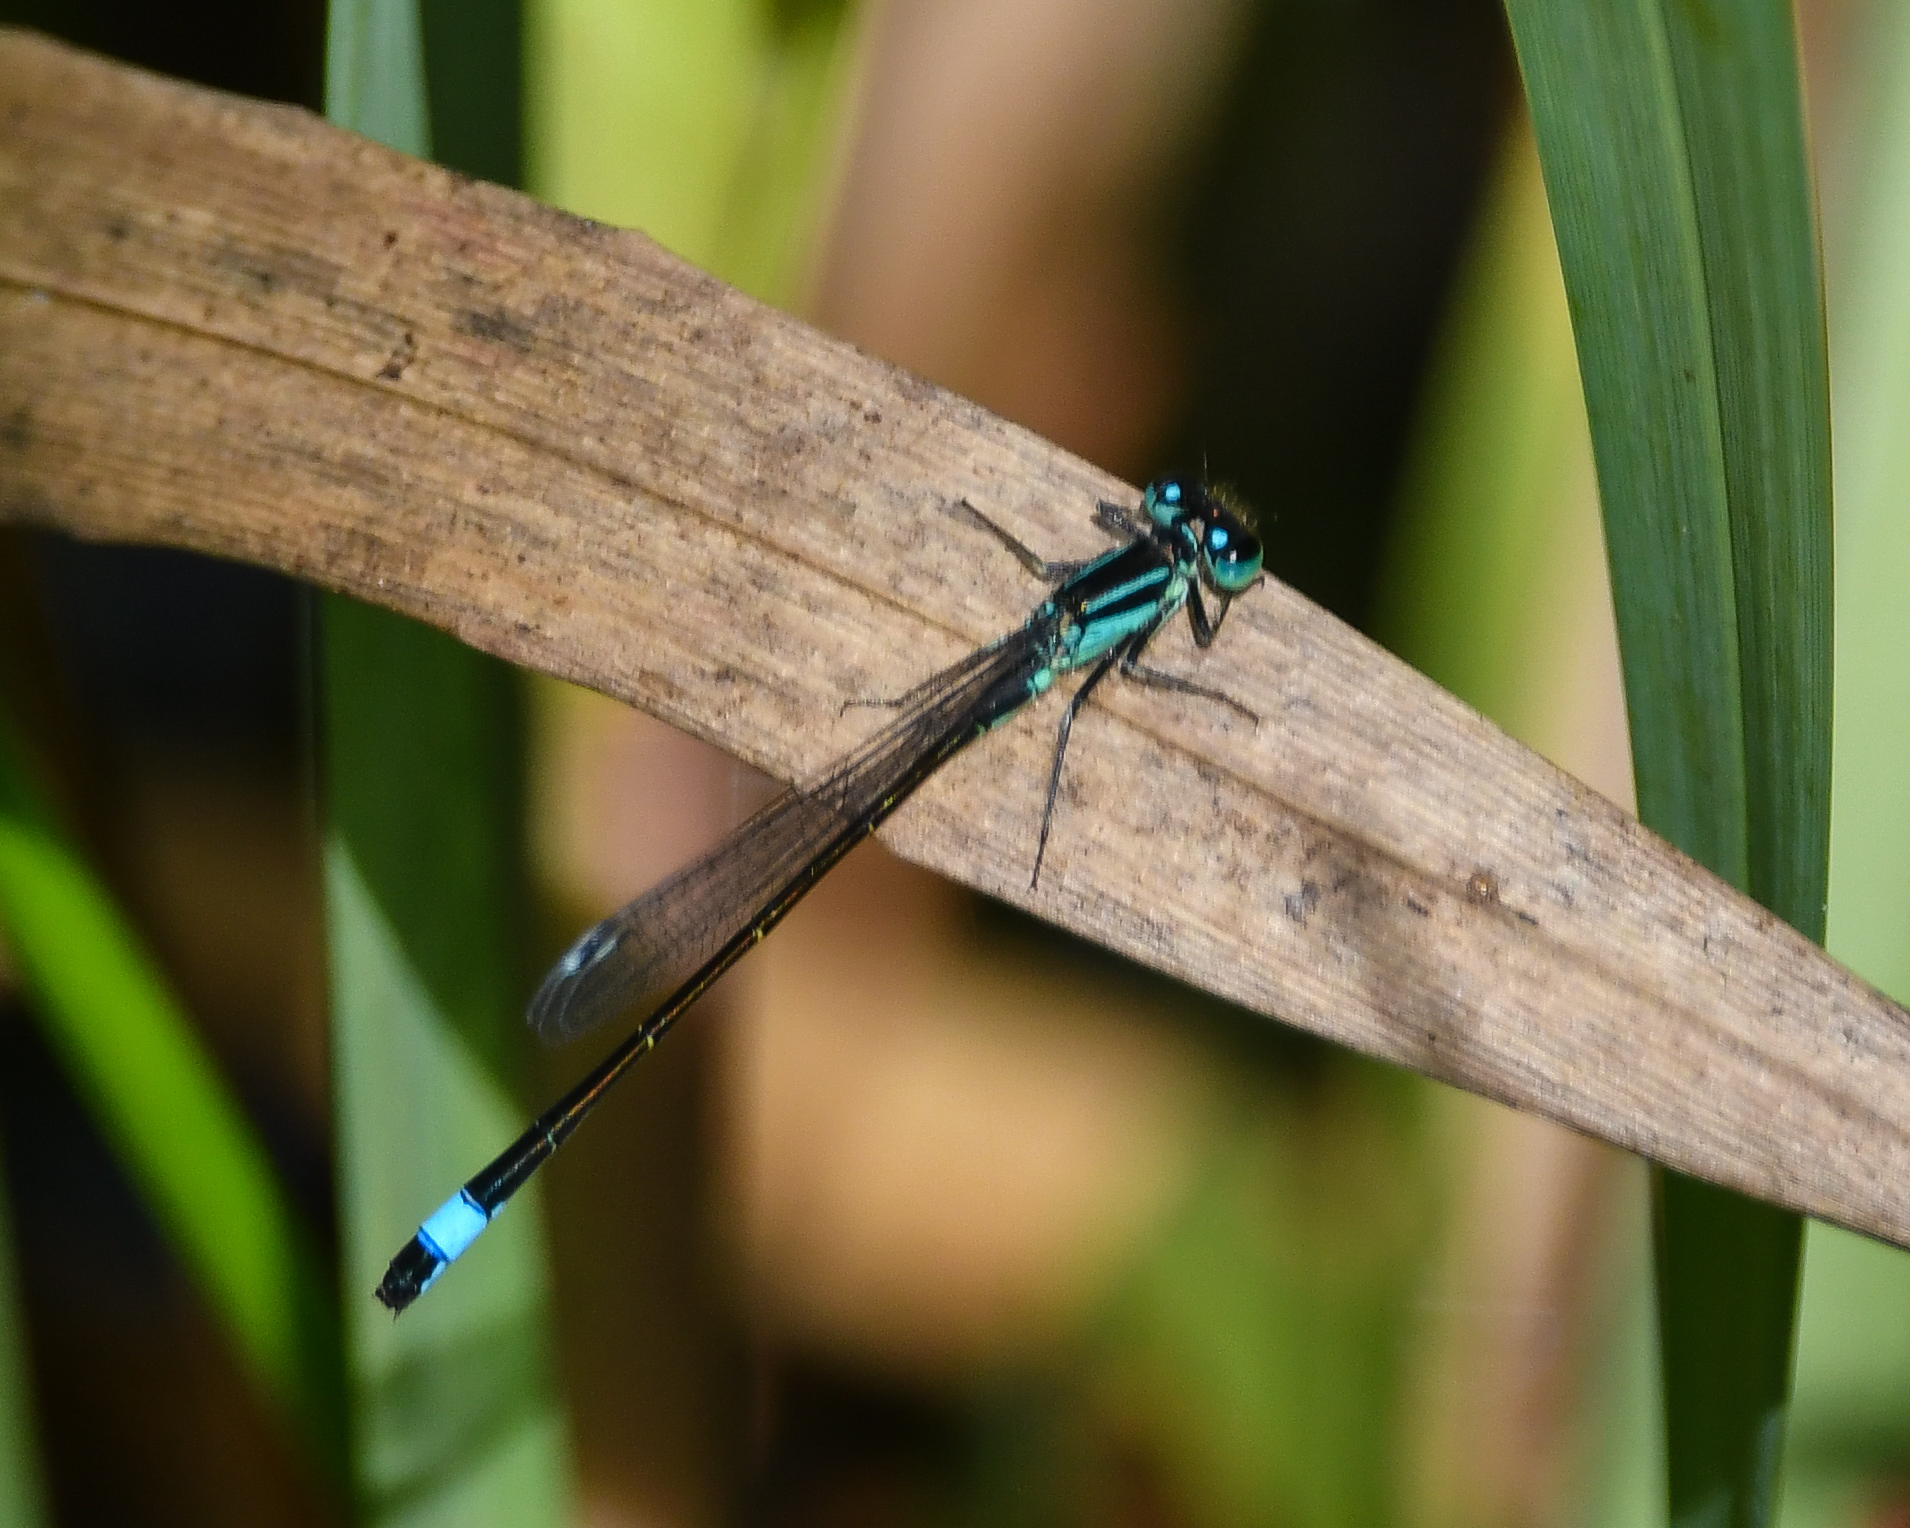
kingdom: Animalia
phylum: Arthropoda
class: Insecta
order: Odonata
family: Coenagrionidae
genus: Ischnura
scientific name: Ischnura elegans
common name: Blue-tailed damselfly
